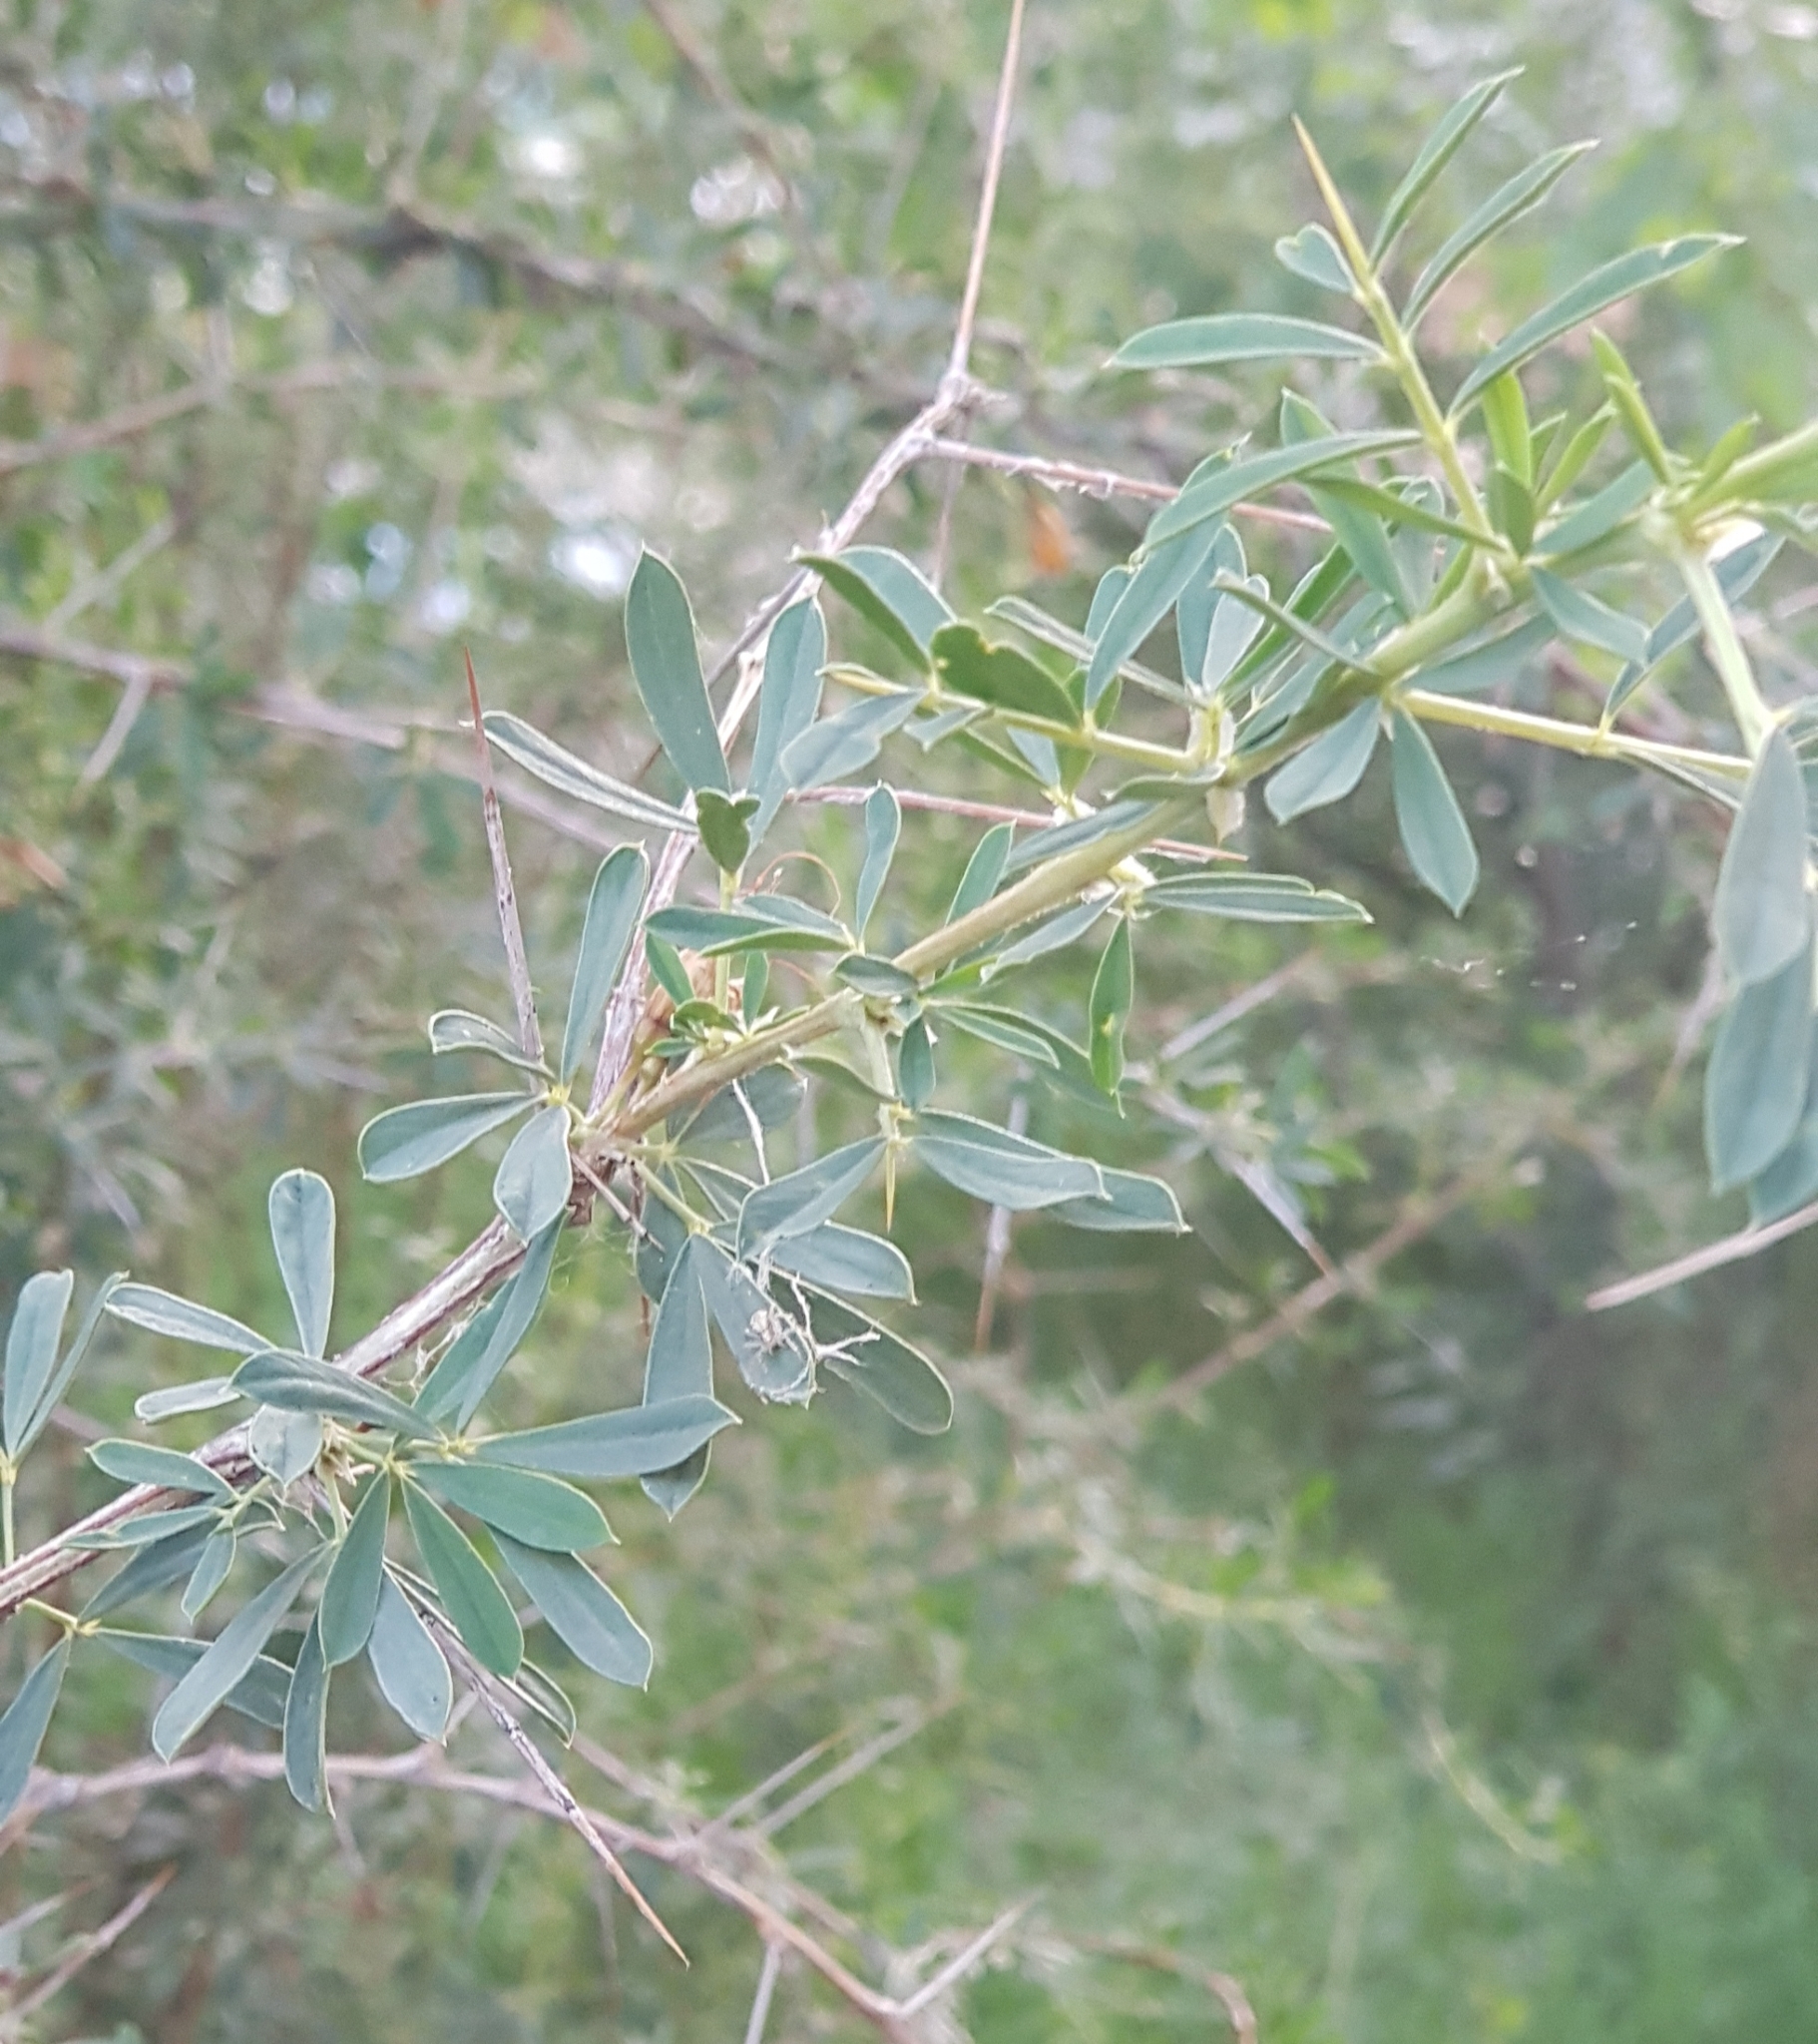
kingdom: Plantae
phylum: Tracheophyta
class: Magnoliopsida
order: Fabales
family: Fabaceae
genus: Caragana
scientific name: Caragana spinosa
